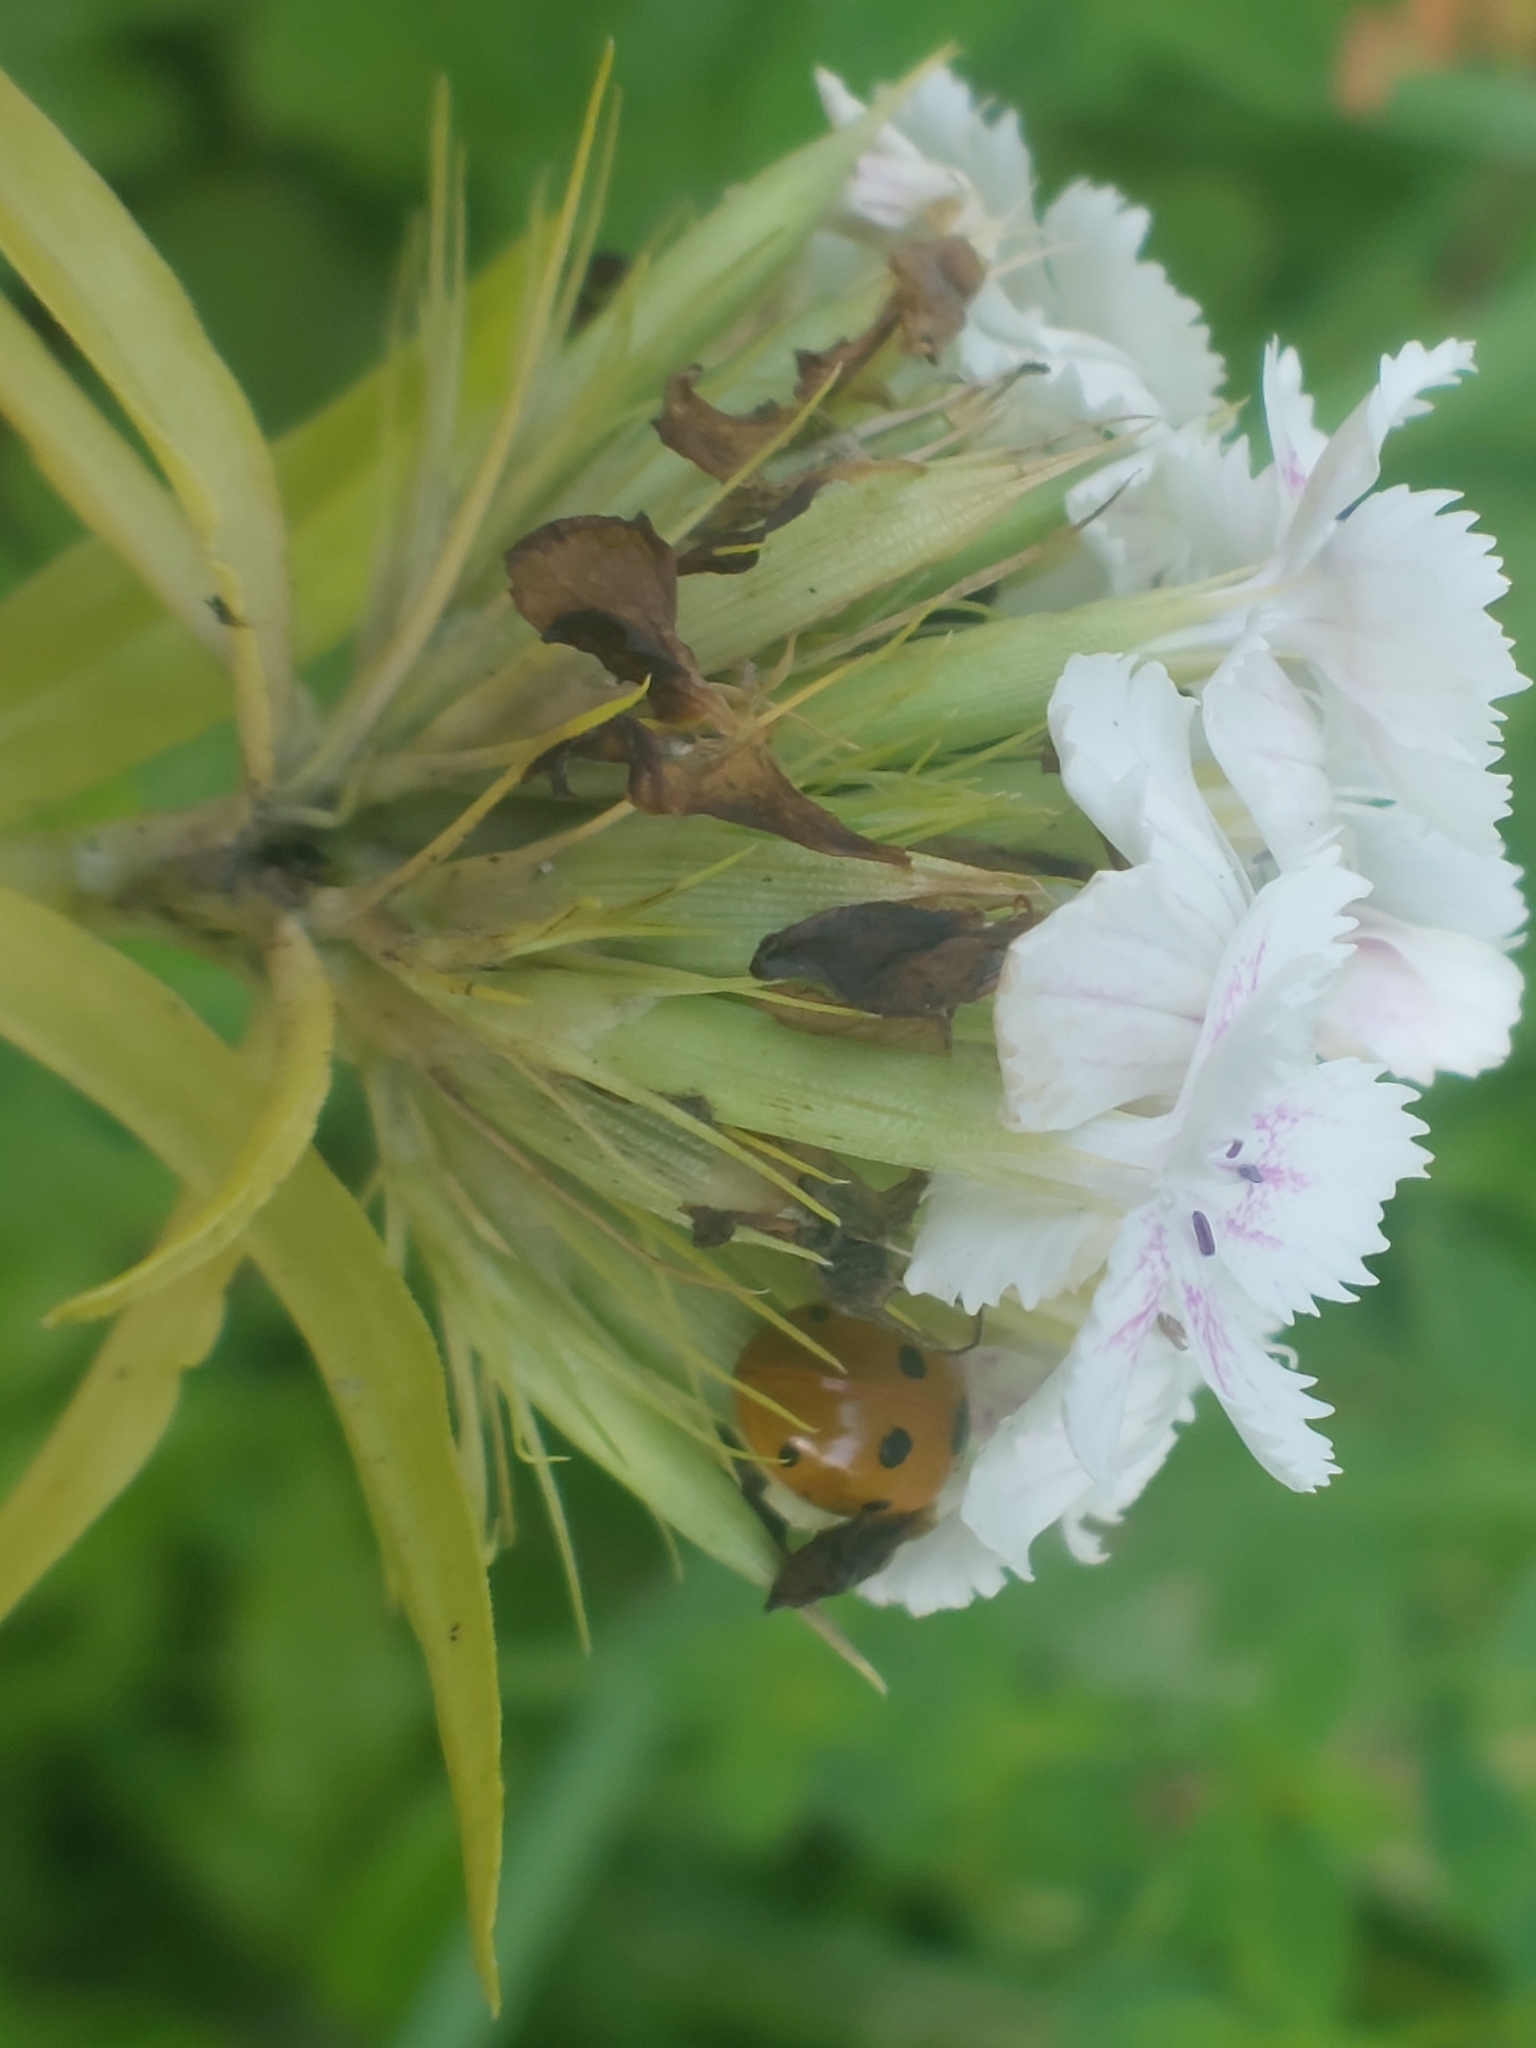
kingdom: Plantae
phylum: Tracheophyta
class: Magnoliopsida
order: Caryophyllales
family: Caryophyllaceae
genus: Dianthus
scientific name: Dianthus barbatus
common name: Sweet-william
